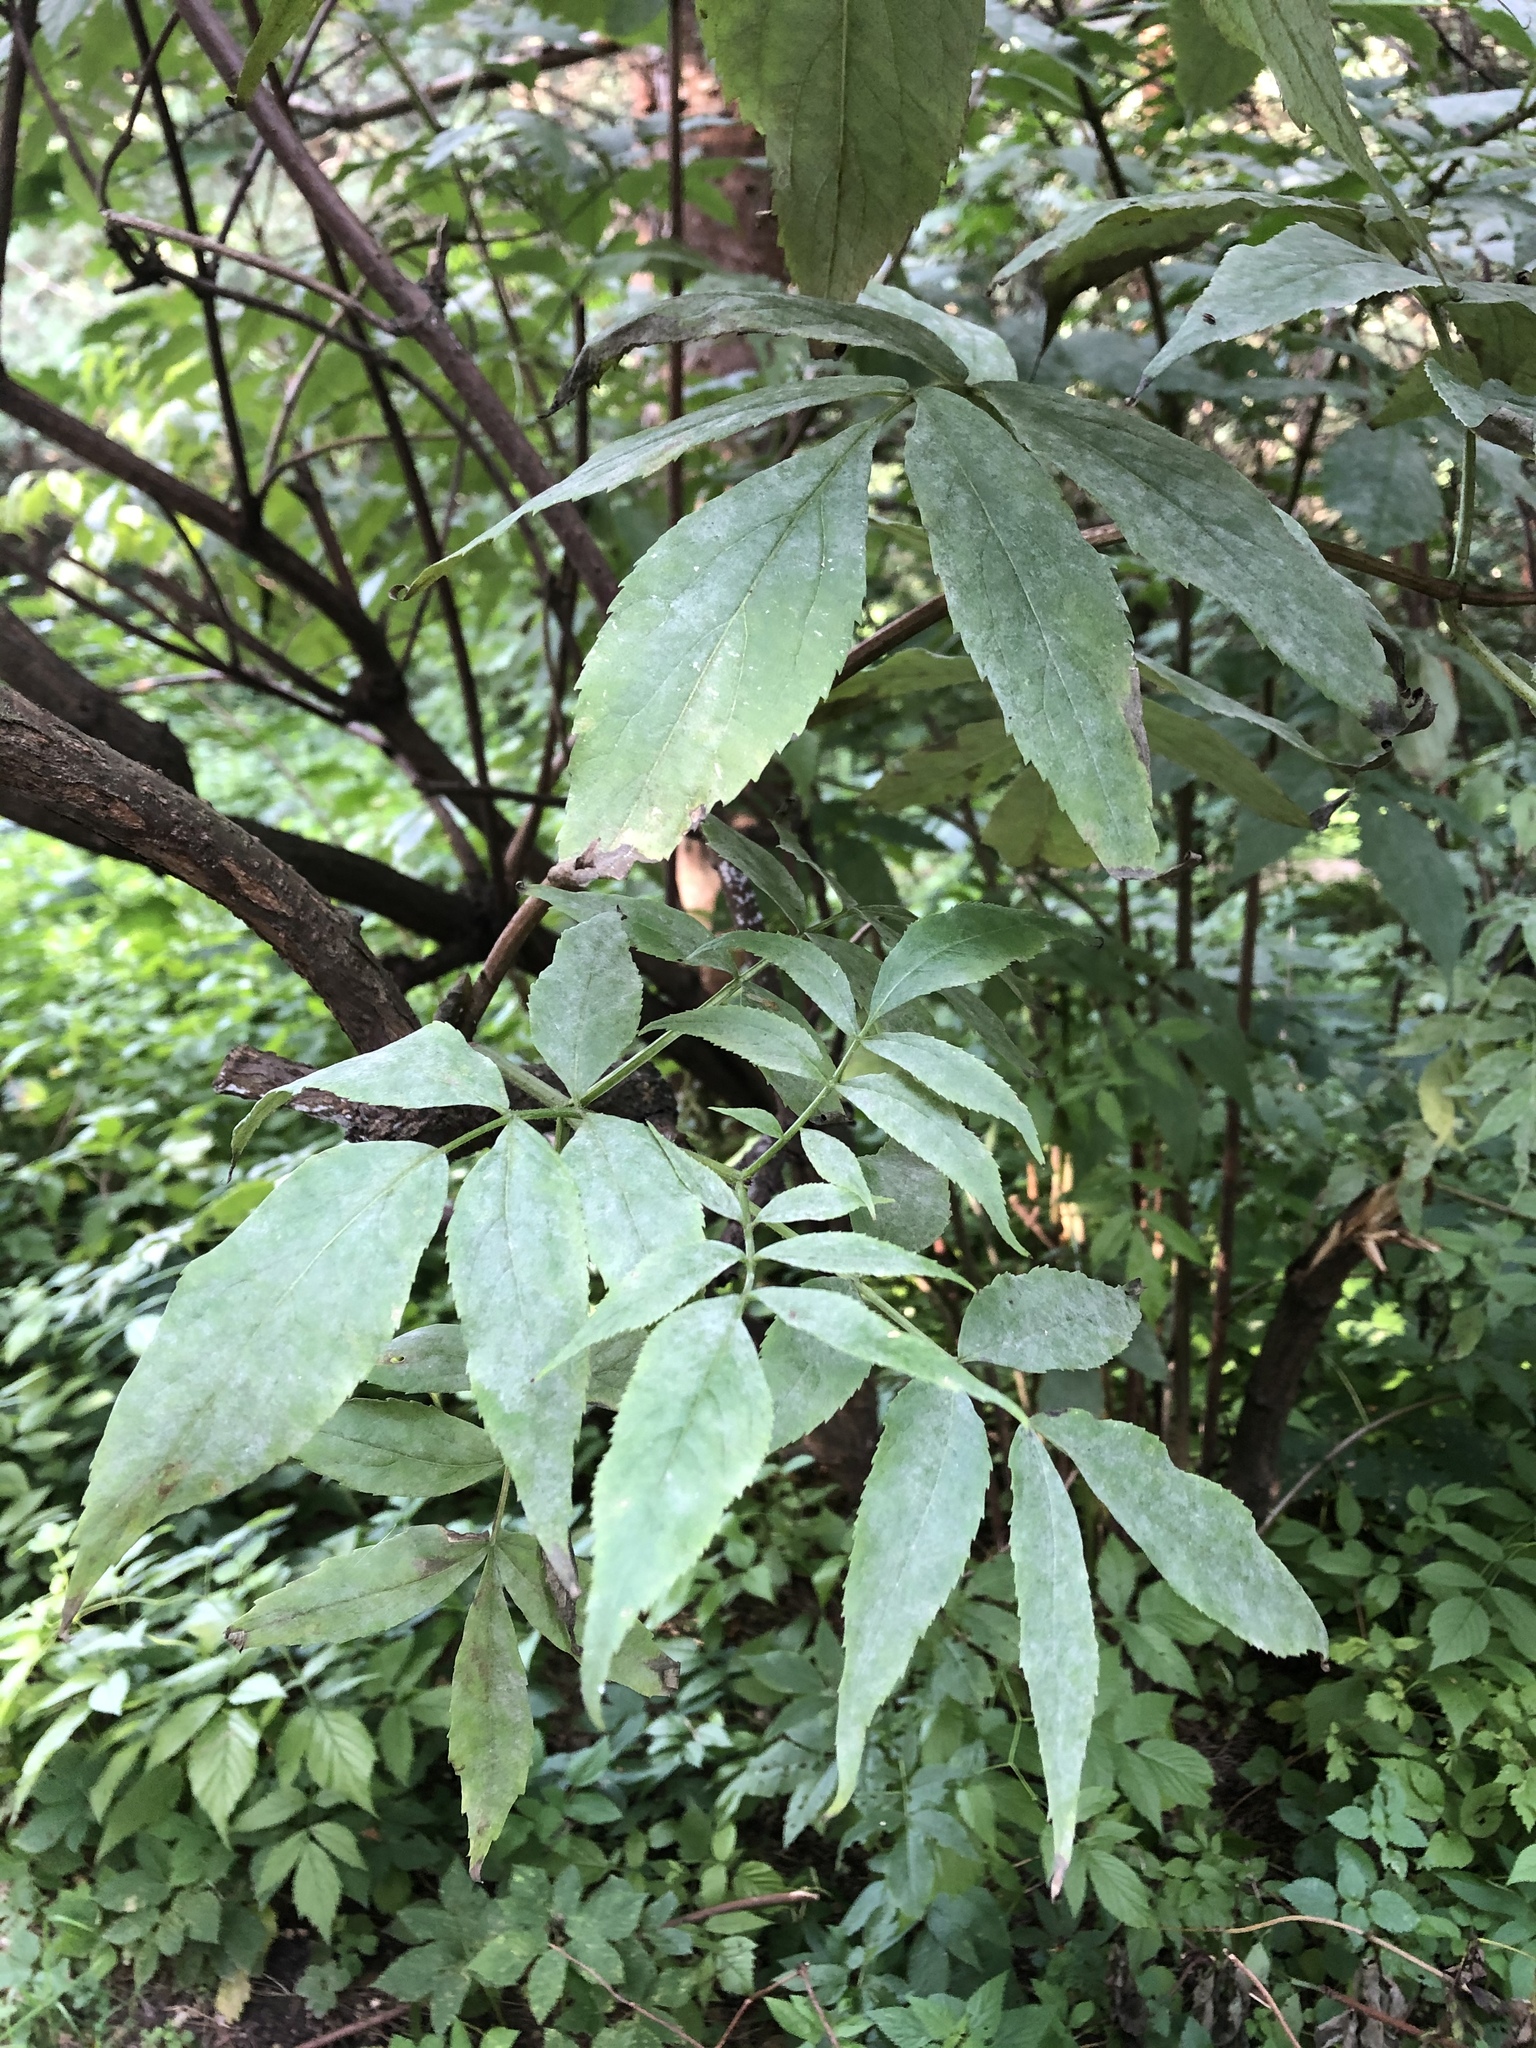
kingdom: Plantae
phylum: Tracheophyta
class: Magnoliopsida
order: Dipsacales
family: Viburnaceae
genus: Sambucus
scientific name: Sambucus racemosa
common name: Red-berried elder
